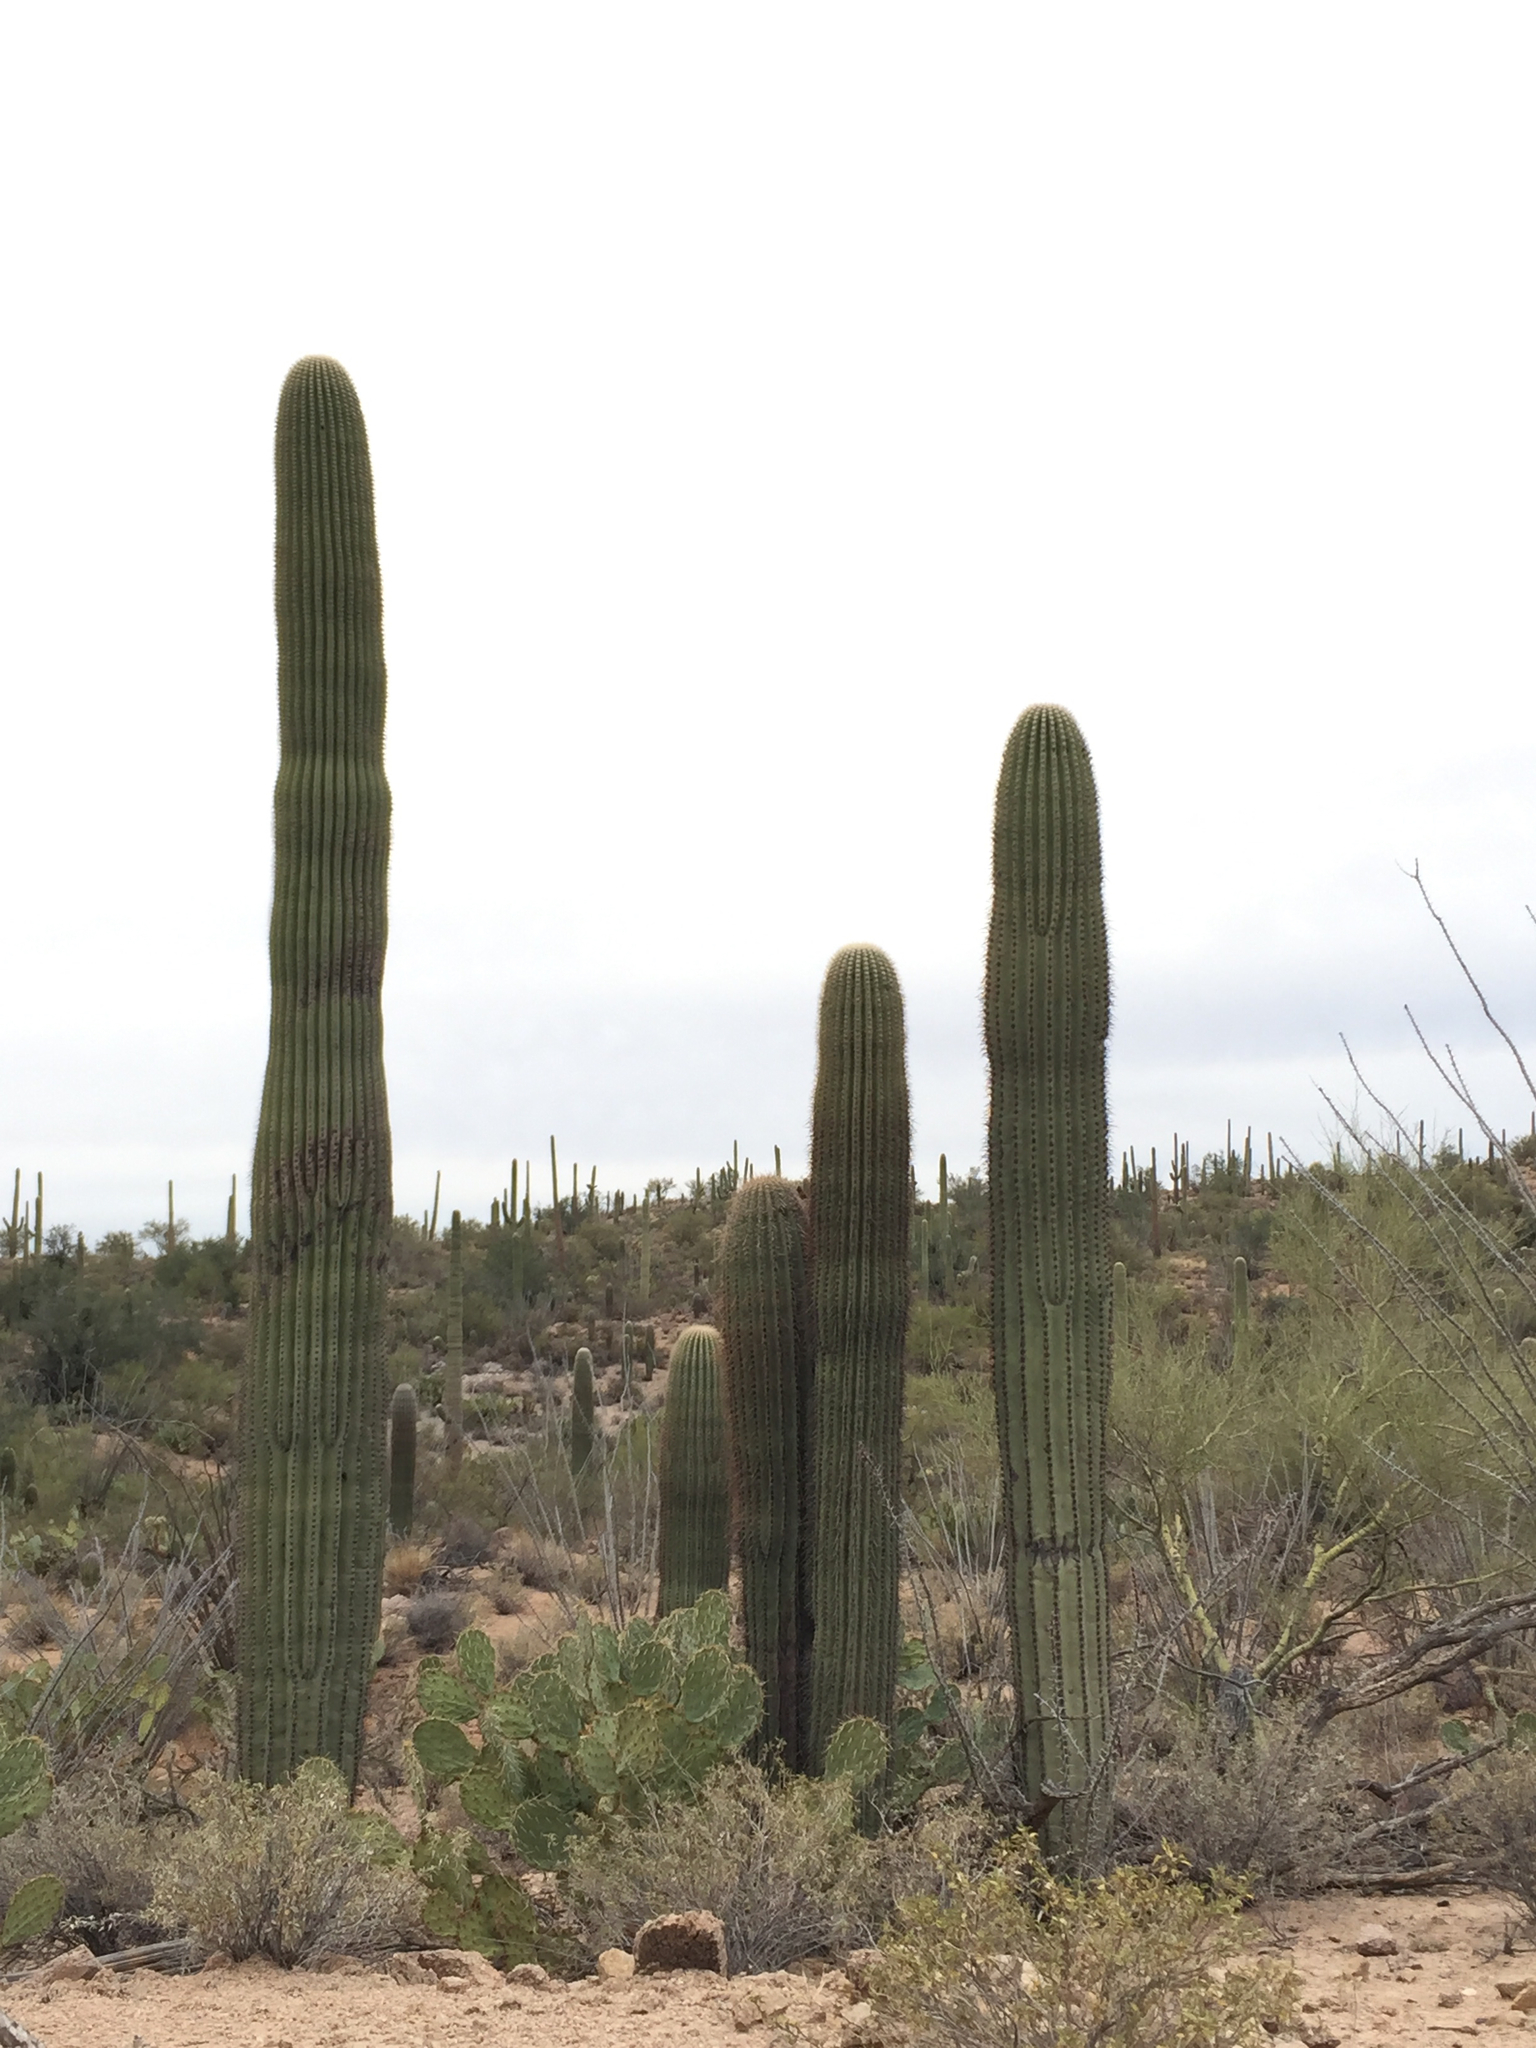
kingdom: Plantae
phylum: Tracheophyta
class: Magnoliopsida
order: Caryophyllales
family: Cactaceae
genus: Carnegiea
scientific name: Carnegiea gigantea
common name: Saguaro
